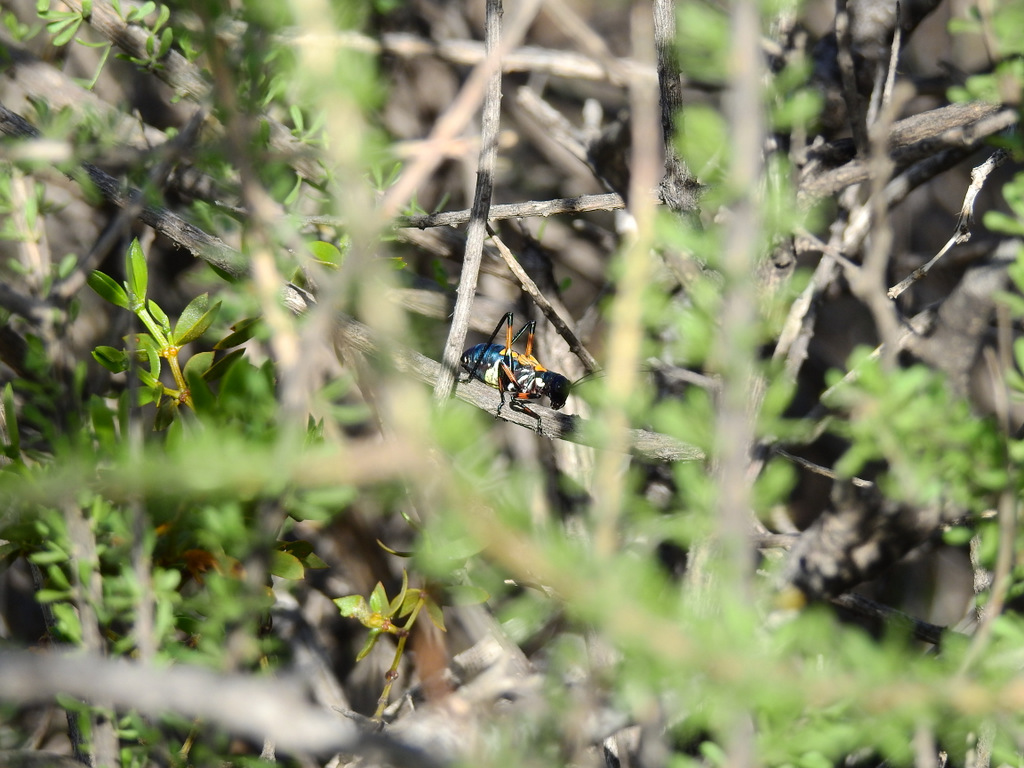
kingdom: Animalia
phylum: Arthropoda
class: Insecta
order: Orthoptera
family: Tettigoniidae
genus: Scaphura
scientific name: Scaphura elegans
